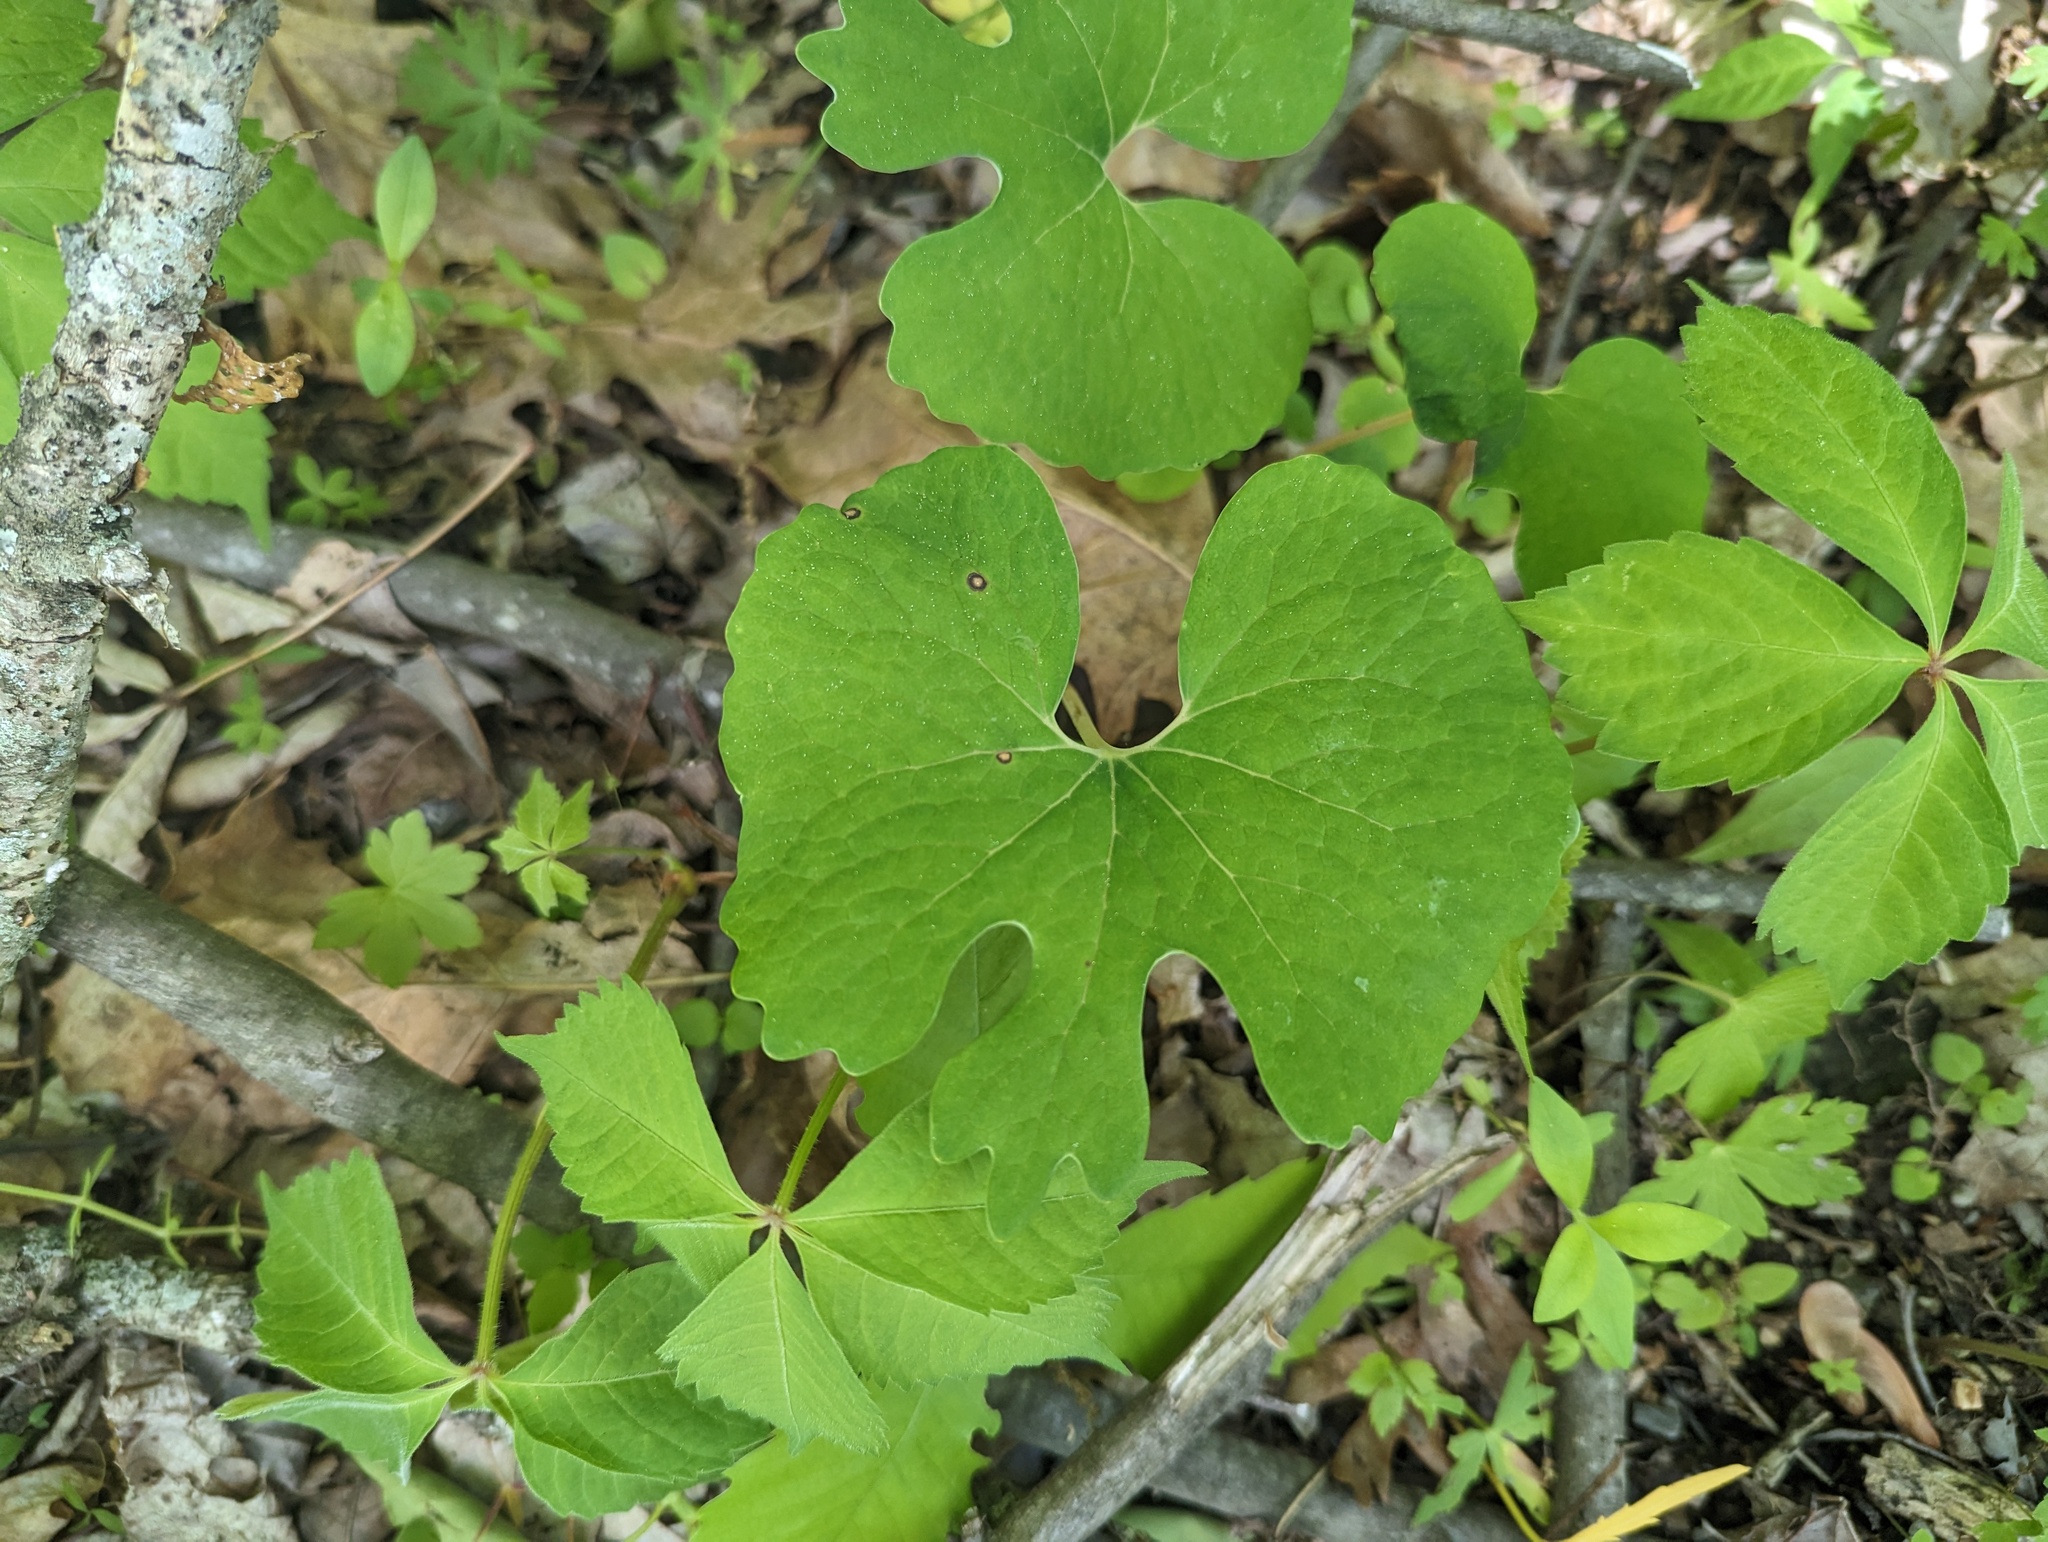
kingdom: Plantae
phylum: Tracheophyta
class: Magnoliopsida
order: Ranunculales
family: Papaveraceae
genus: Sanguinaria
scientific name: Sanguinaria canadensis
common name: Bloodroot
